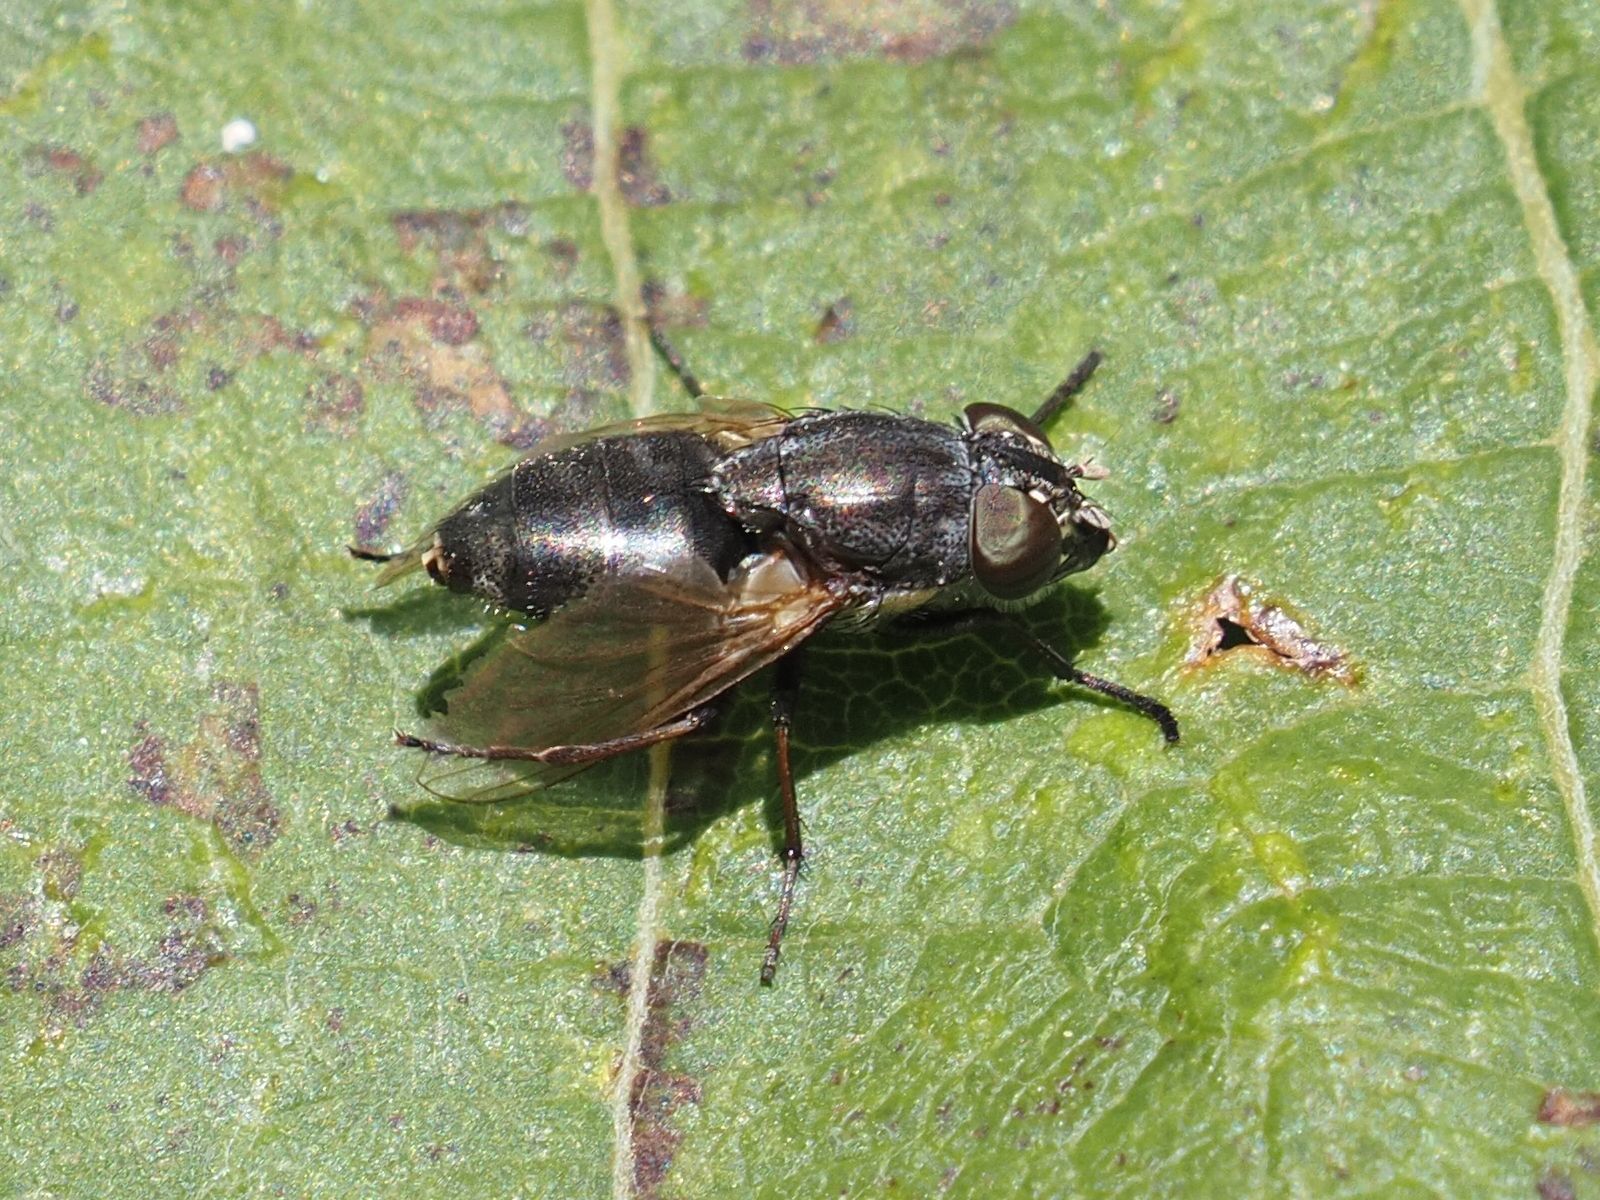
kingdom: Animalia
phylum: Arthropoda
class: Insecta
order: Diptera
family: Calliphoridae
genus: Stomorhina
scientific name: Stomorhina lunata
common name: Locust blowfly
